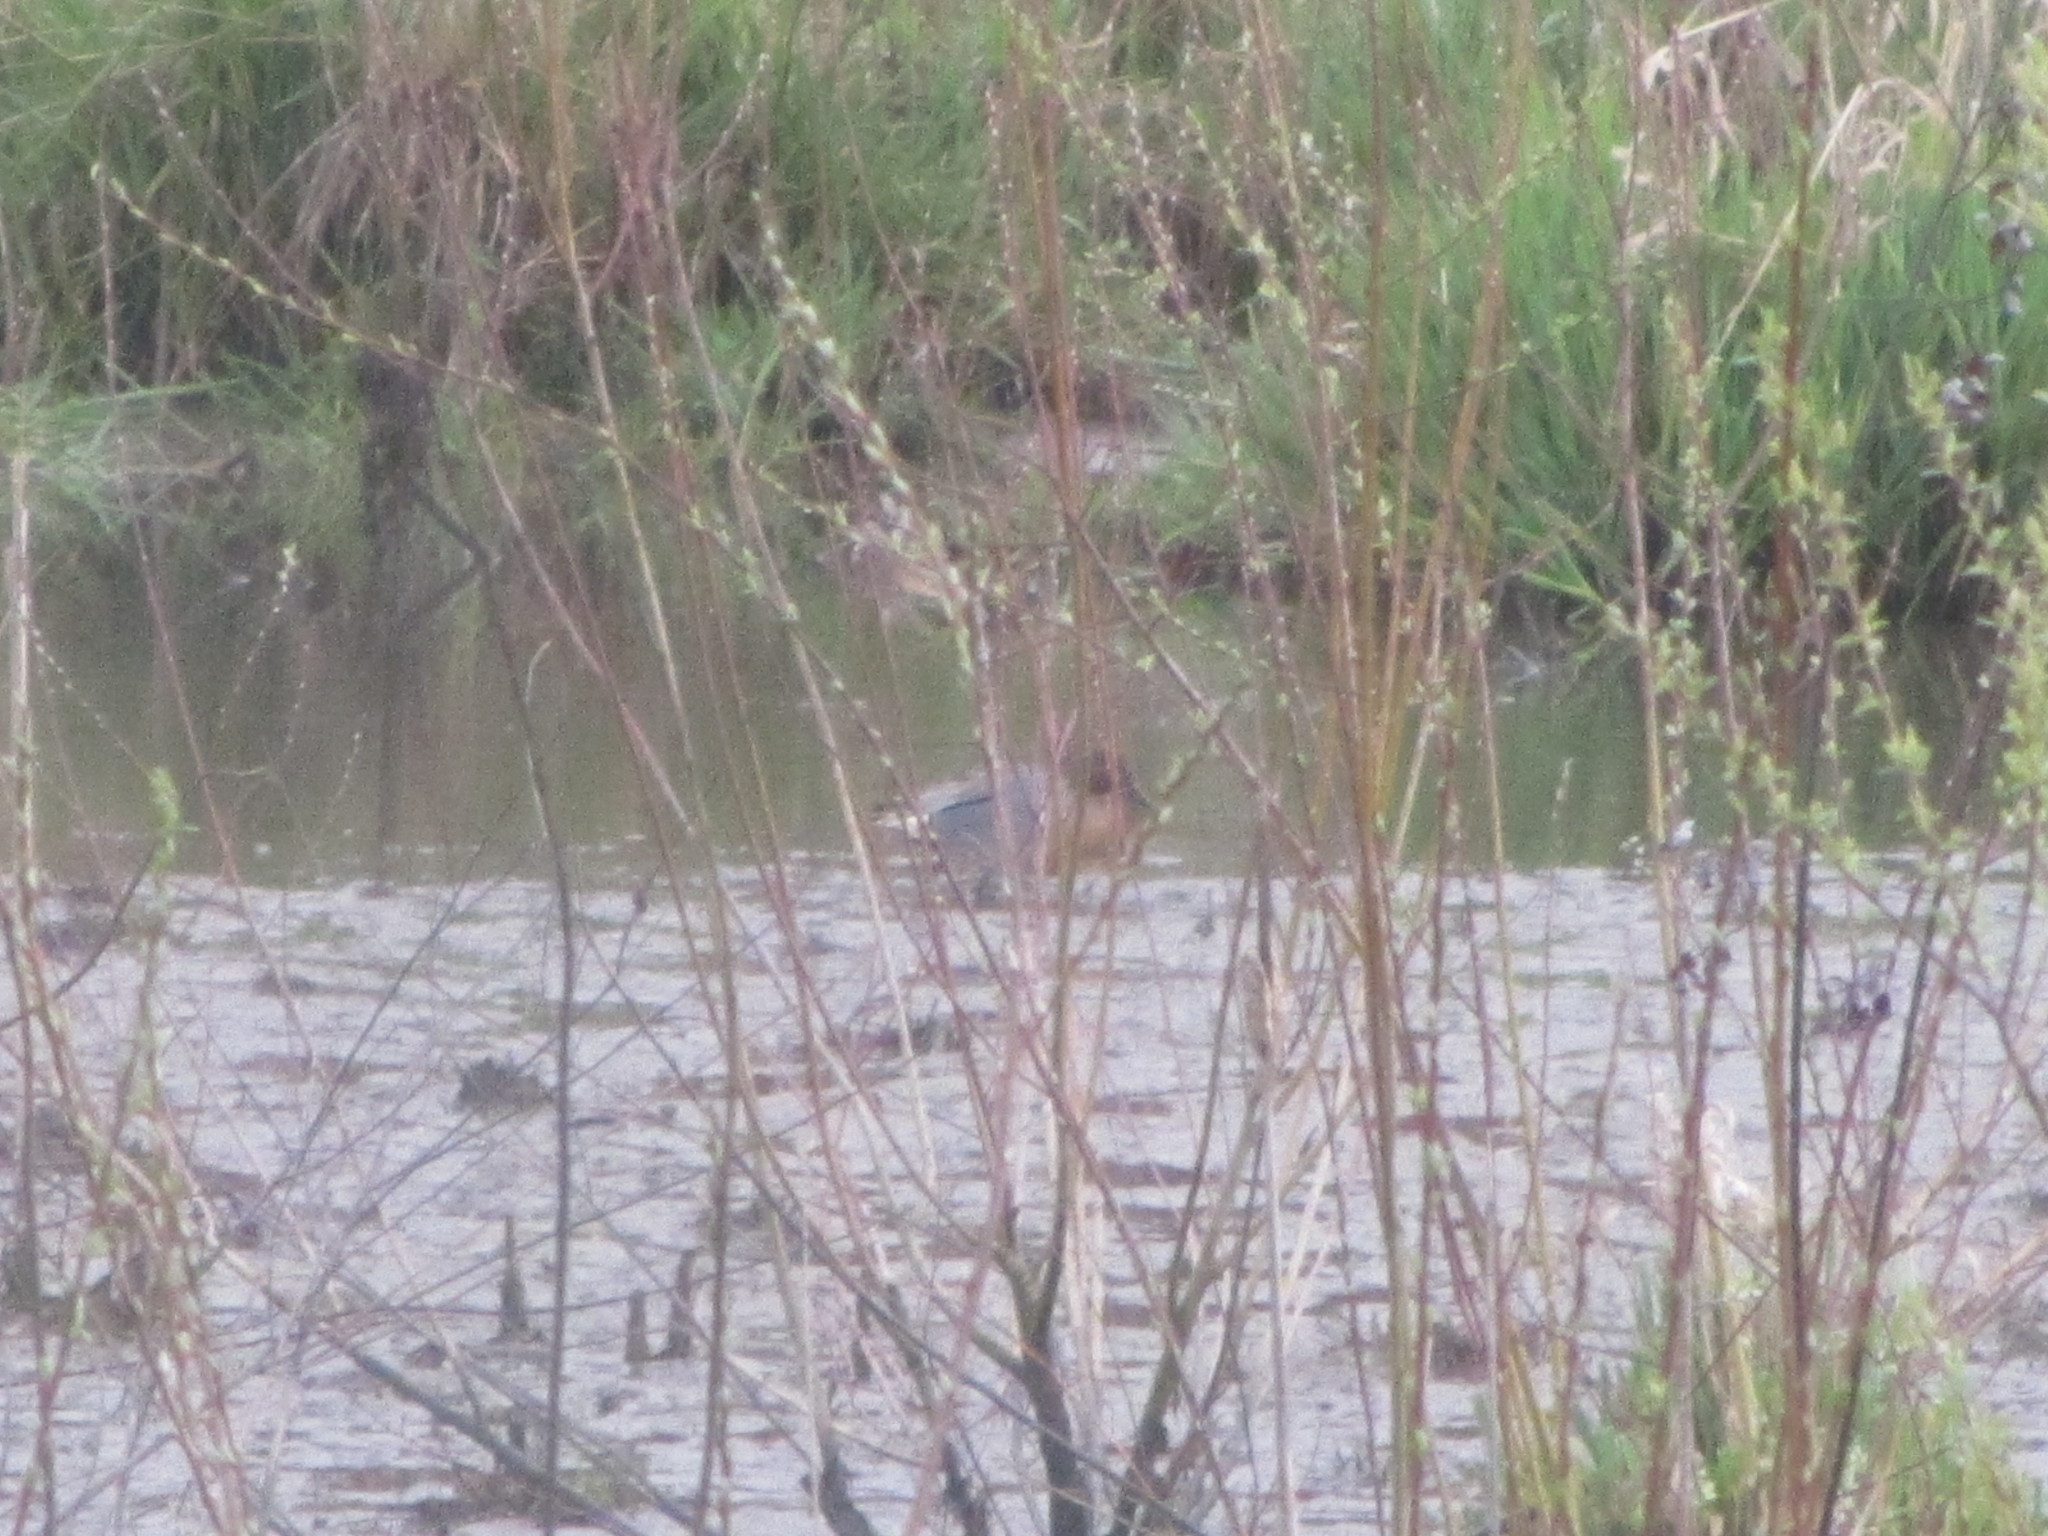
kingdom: Animalia
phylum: Chordata
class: Aves
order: Anseriformes
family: Anatidae
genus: Anas
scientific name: Anas crecca
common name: Eurasian teal
